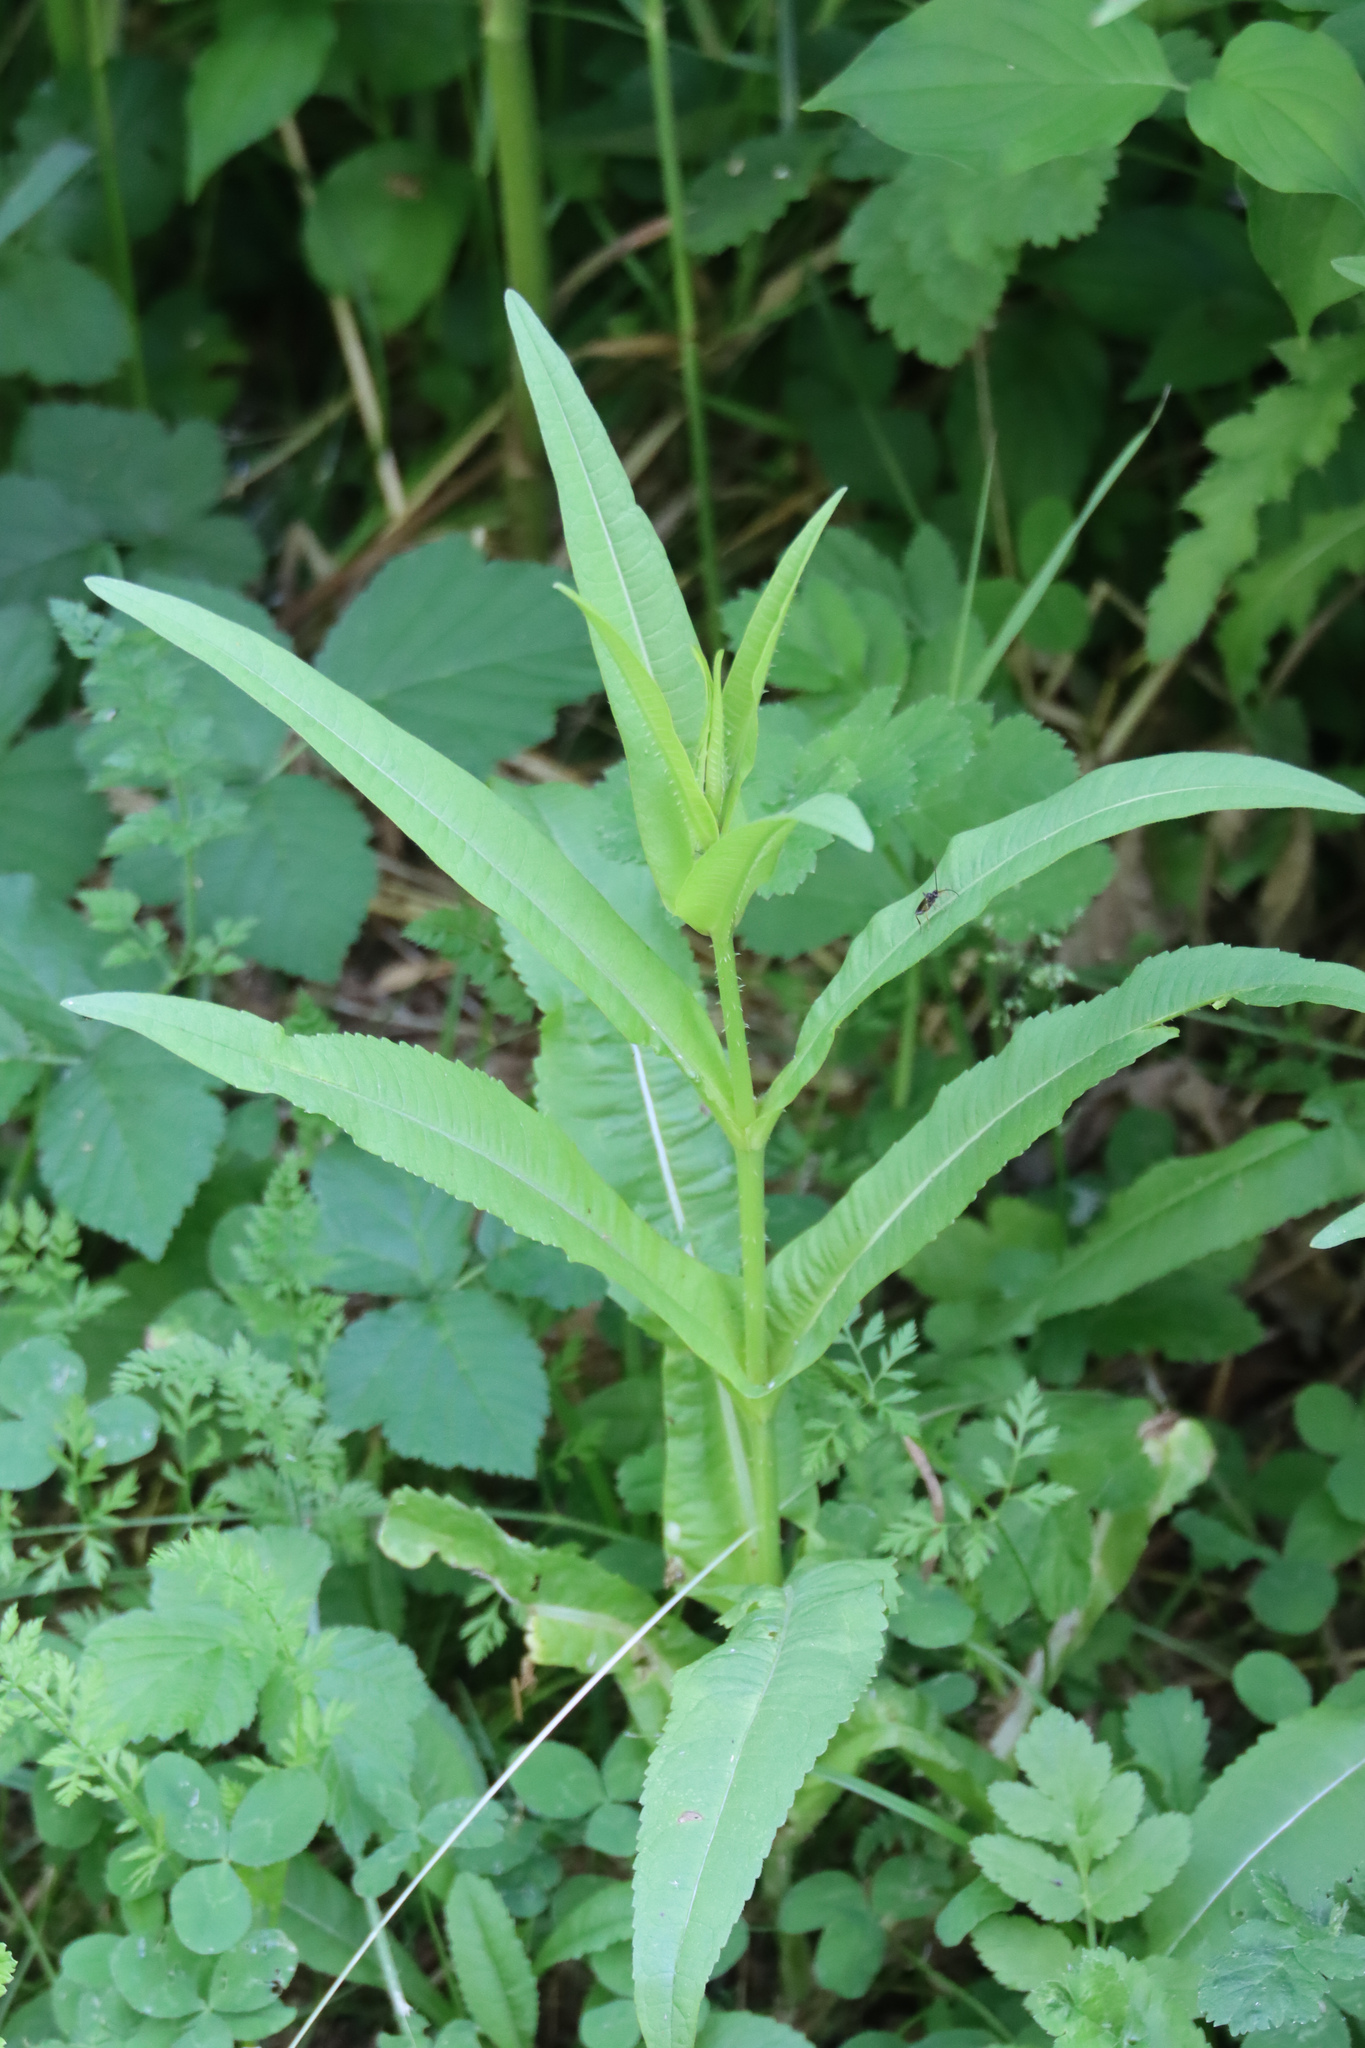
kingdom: Plantae
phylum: Tracheophyta
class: Magnoliopsida
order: Dipsacales
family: Caprifoliaceae
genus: Dipsacus
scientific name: Dipsacus fullonum
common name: Teasel
